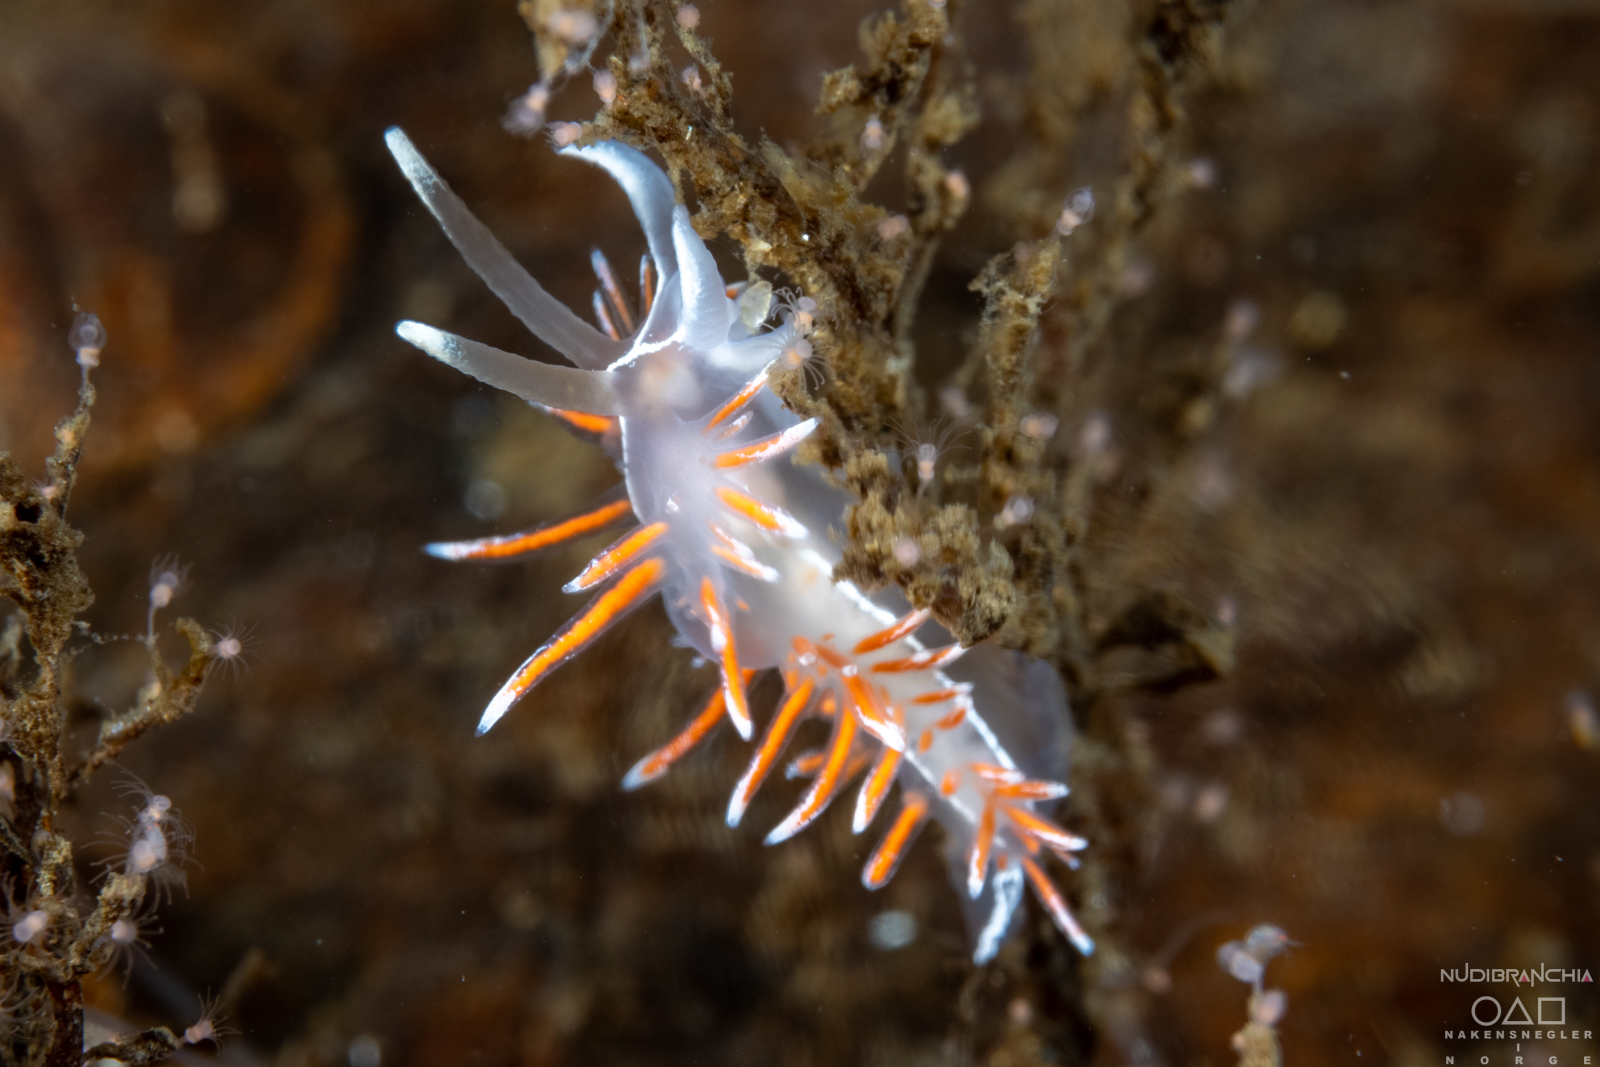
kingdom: Animalia
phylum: Mollusca
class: Gastropoda
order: Nudibranchia
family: Coryphellidae
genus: Coryphella
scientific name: Coryphella lineata
